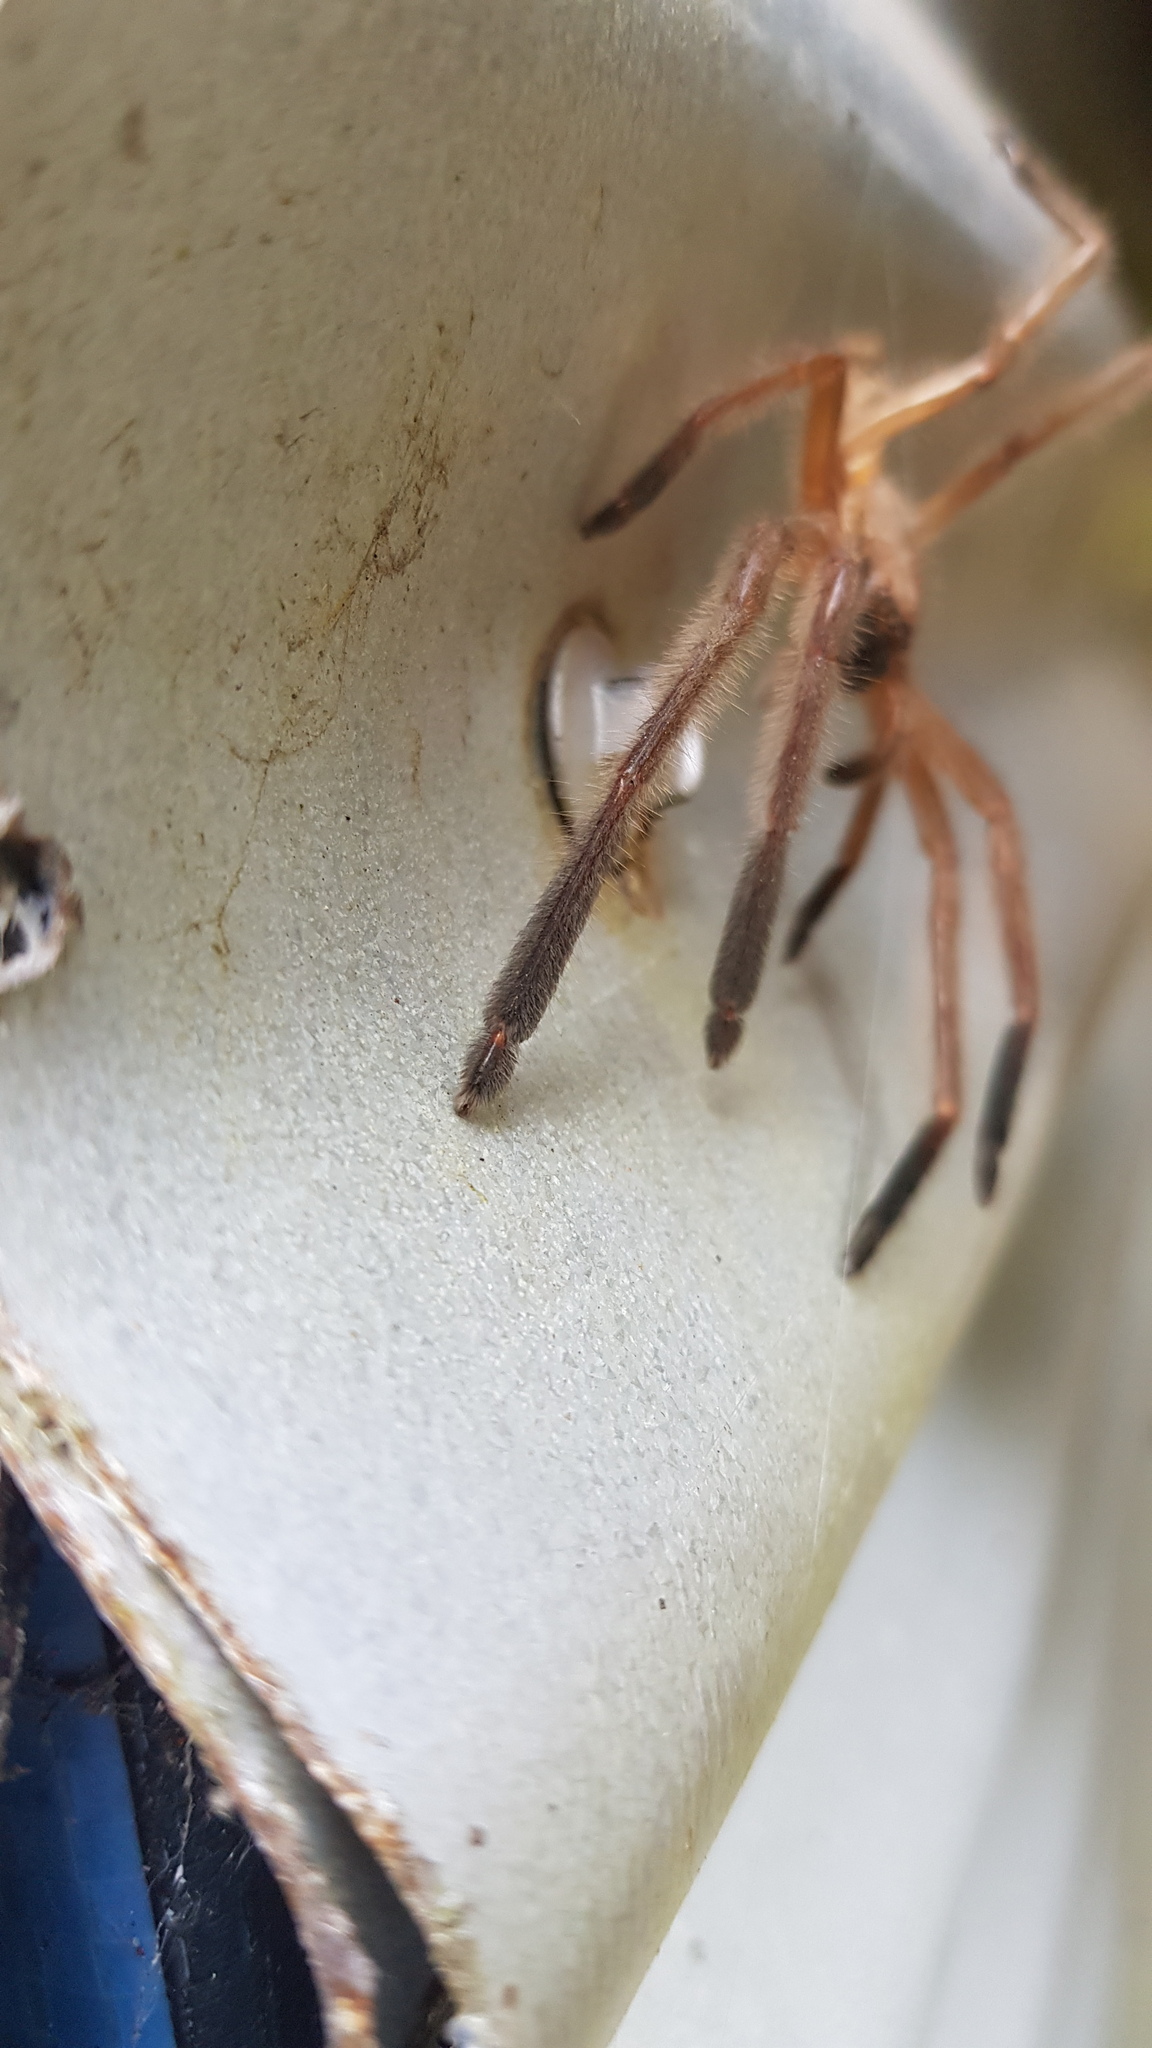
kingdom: Animalia
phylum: Arthropoda
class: Arachnida
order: Araneae
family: Sparassidae
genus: Delena
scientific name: Delena cancerides
